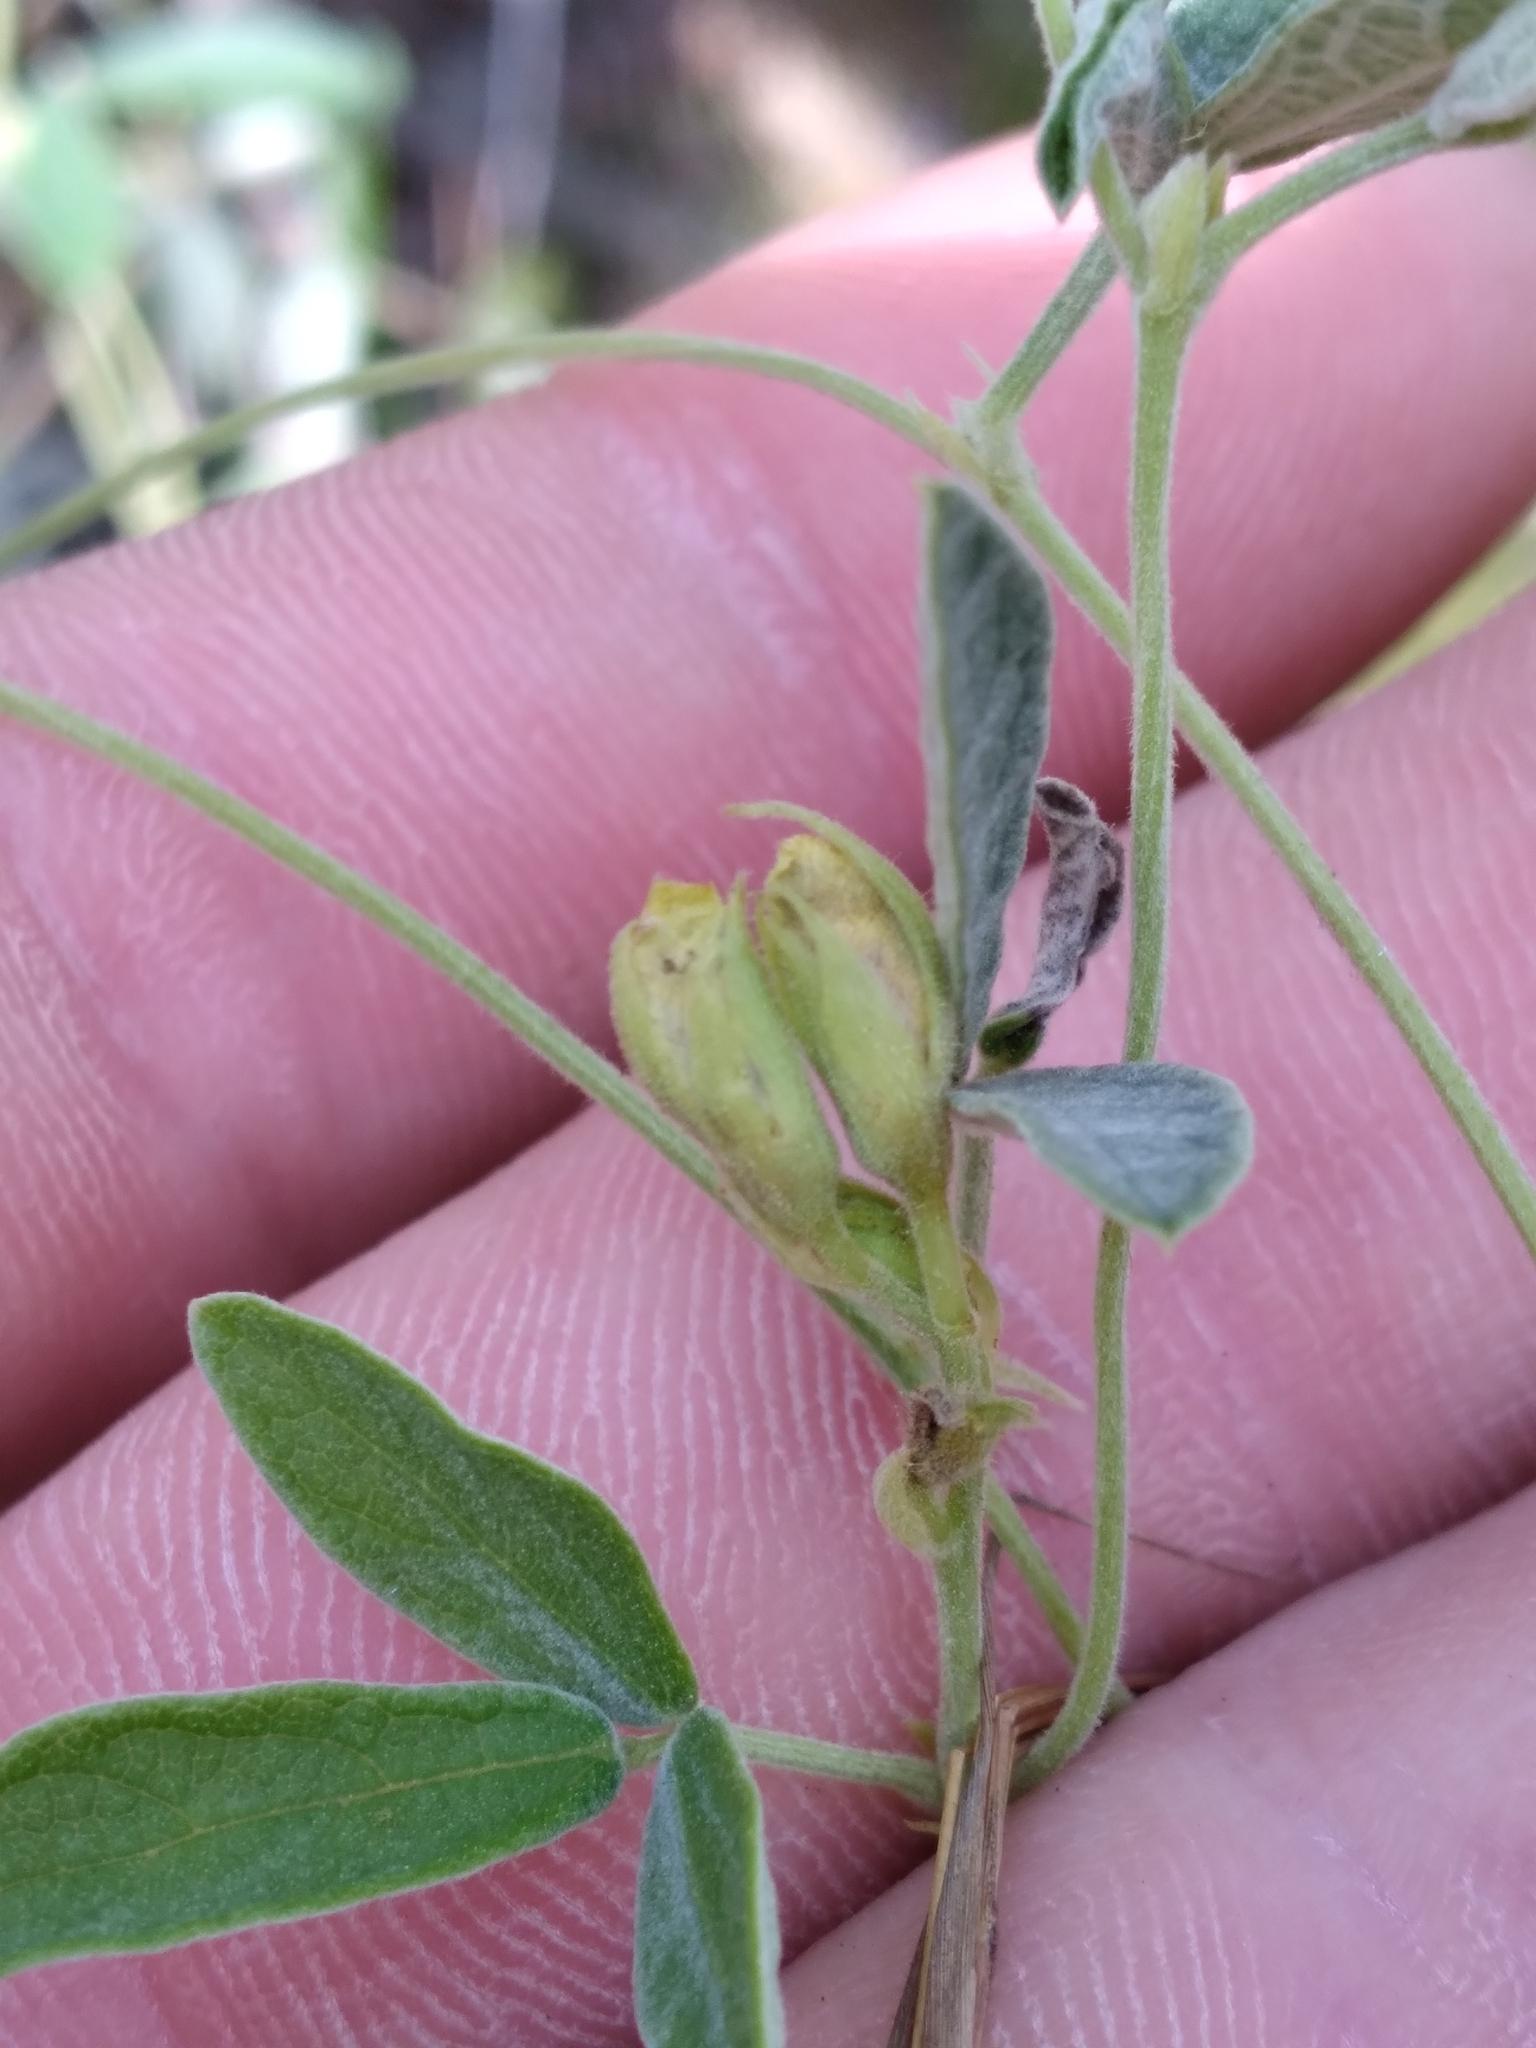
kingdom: Plantae
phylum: Tracheophyta
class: Magnoliopsida
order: Fabales
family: Fabaceae
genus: Rhynchosia
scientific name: Rhynchosia parvifolia
